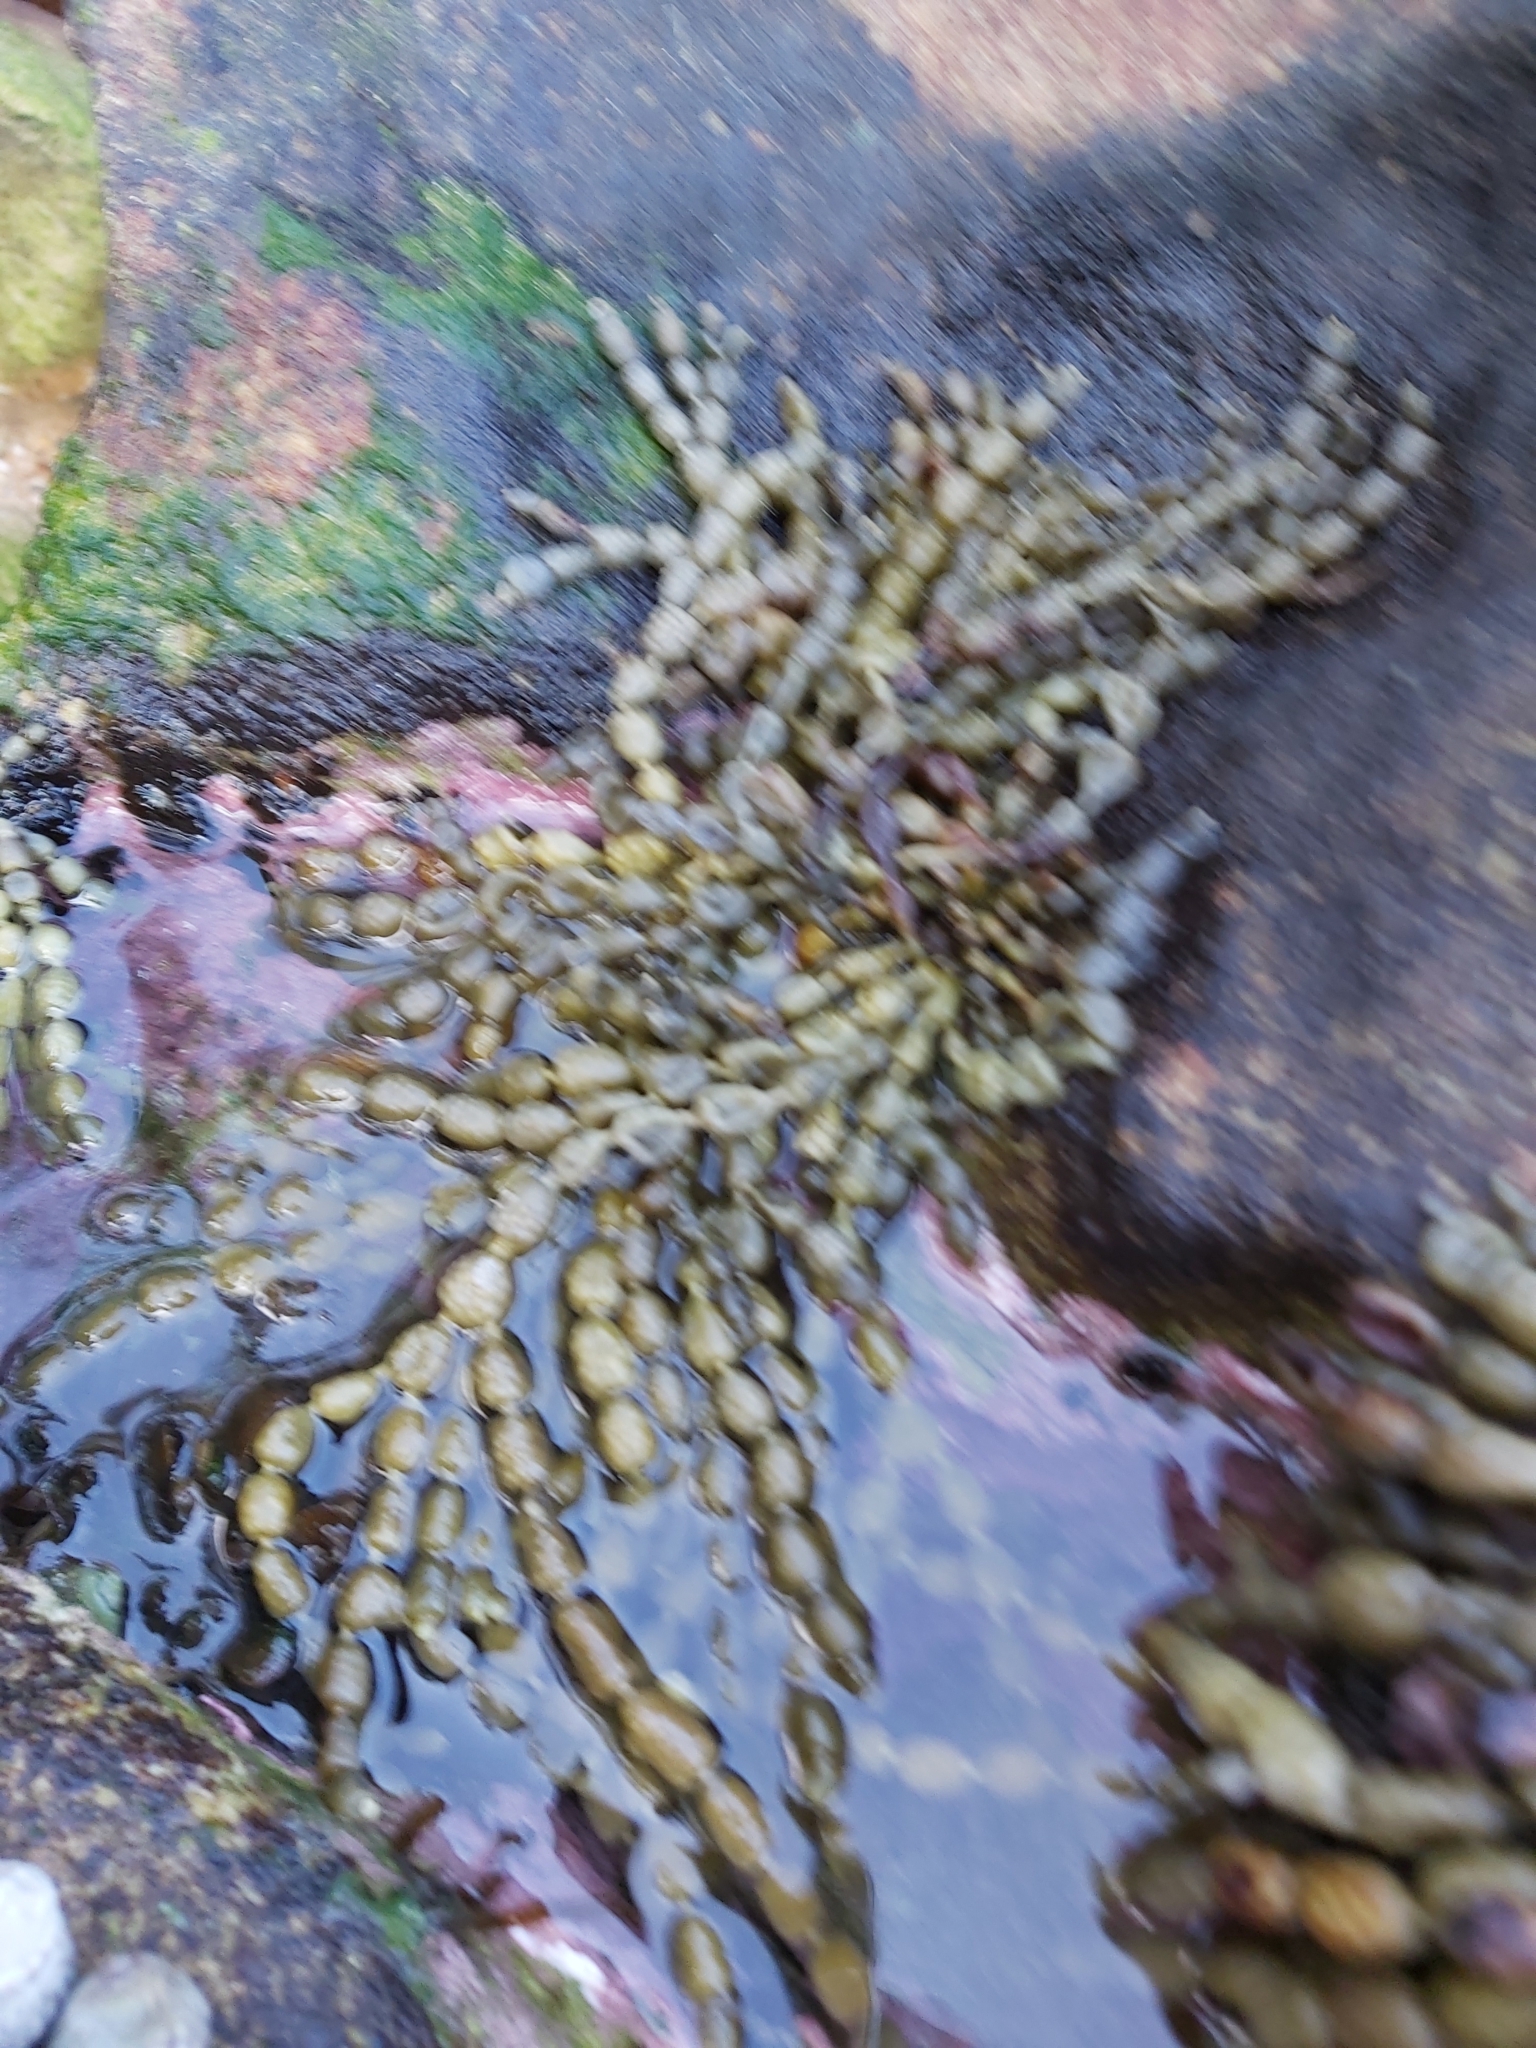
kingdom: Chromista
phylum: Ochrophyta
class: Phaeophyceae
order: Fucales
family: Hormosiraceae
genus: Hormosira
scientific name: Hormosira banksii
